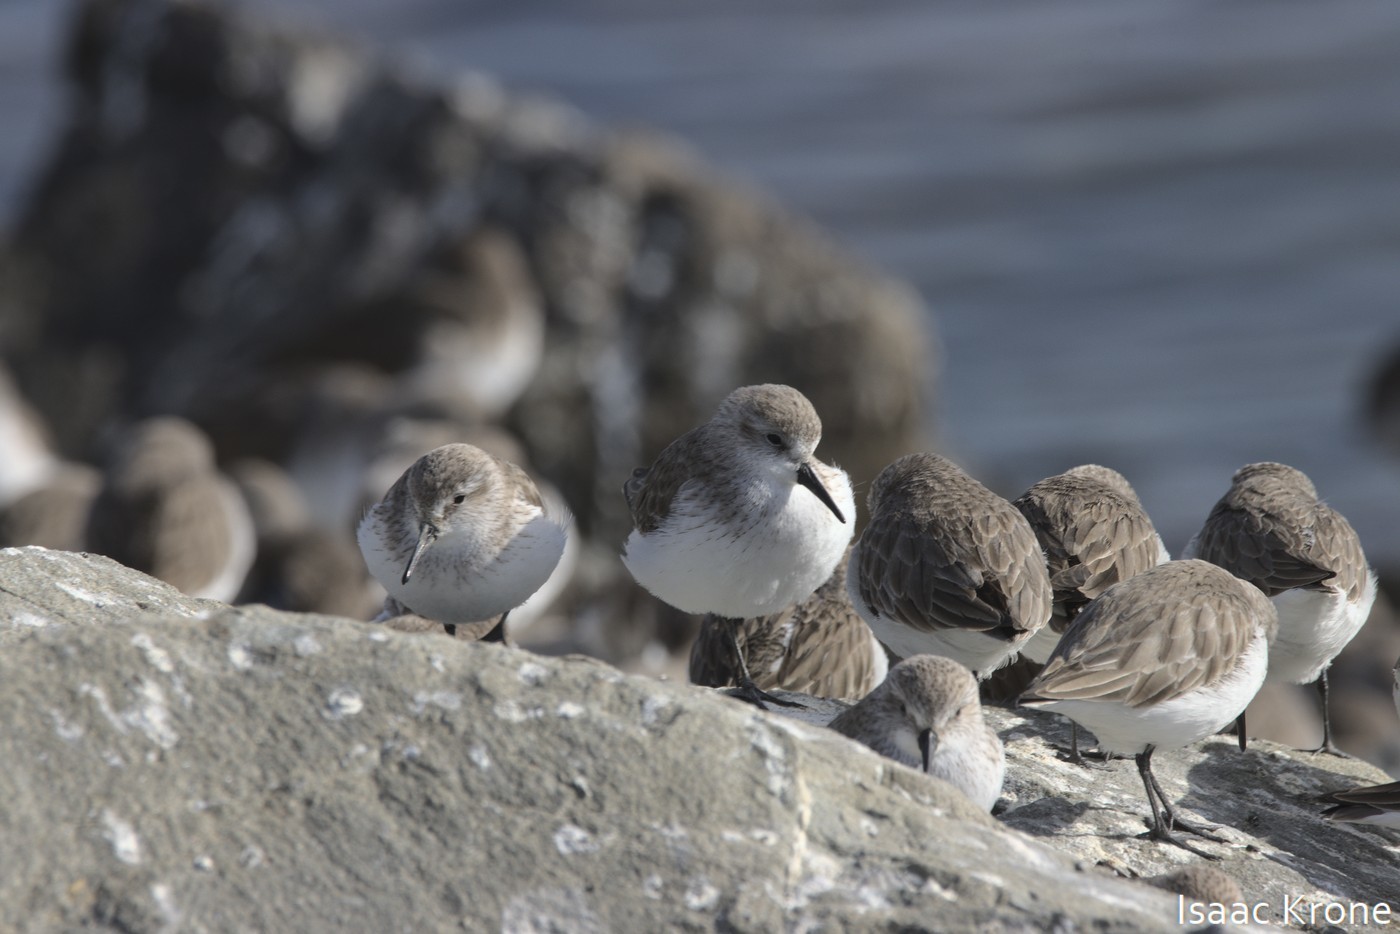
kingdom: Animalia
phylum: Chordata
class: Aves
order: Charadriiformes
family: Scolopacidae
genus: Calidris
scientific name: Calidris mauri
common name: Western sandpiper
